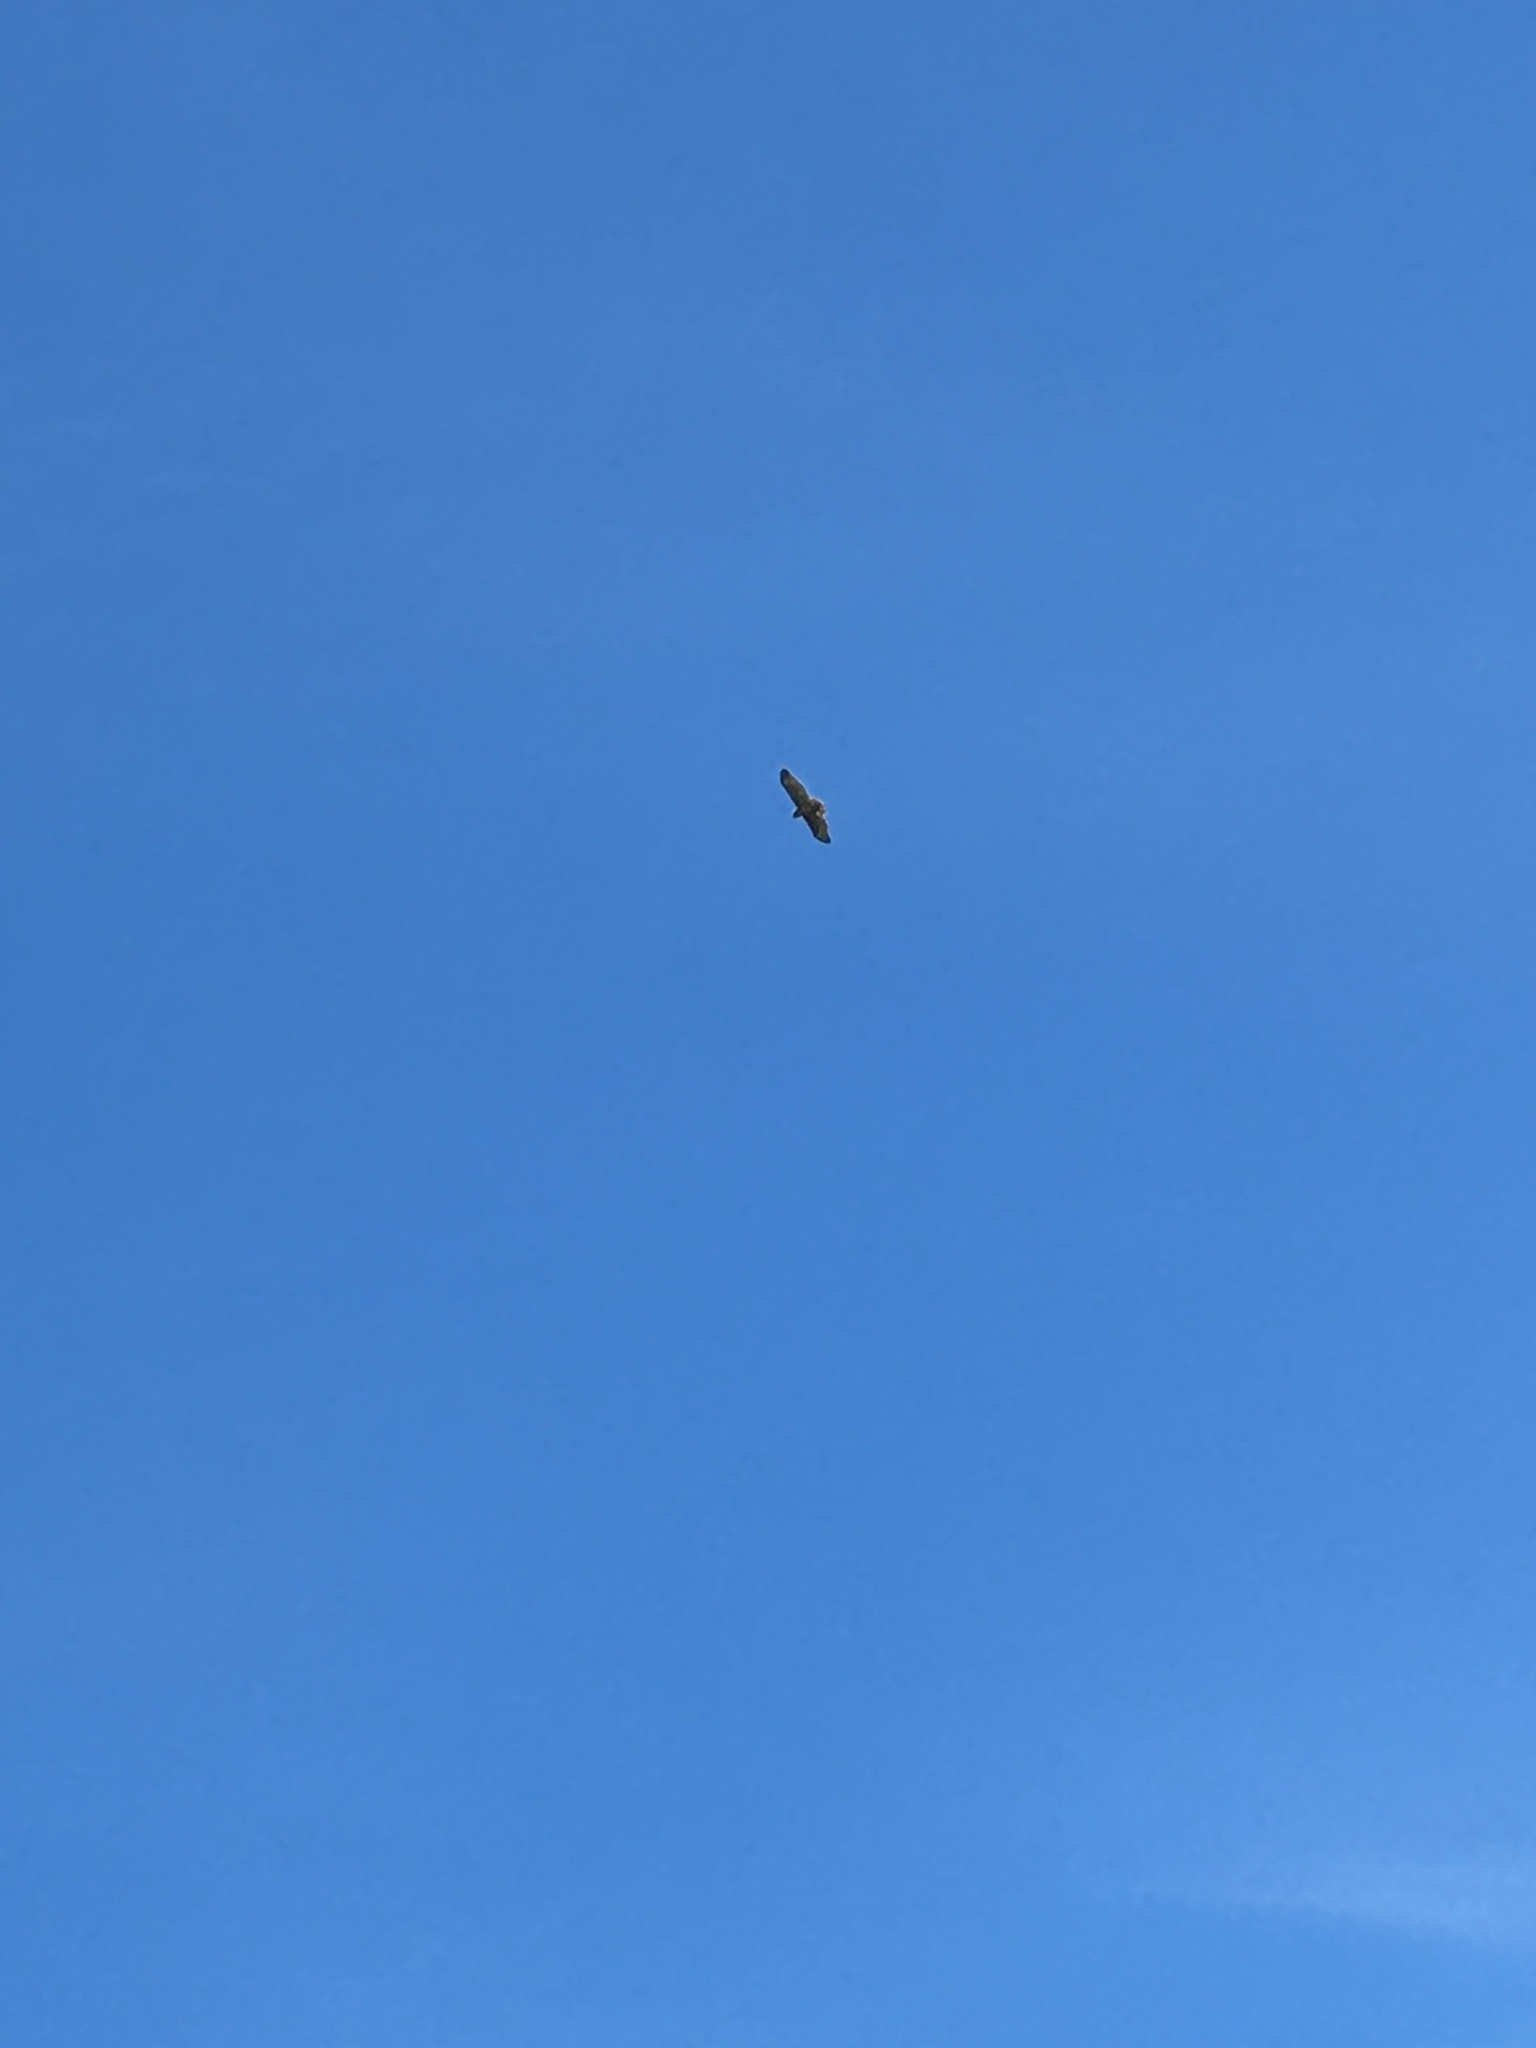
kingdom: Animalia
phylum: Chordata
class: Aves
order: Accipitriformes
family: Accipitridae
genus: Buteo
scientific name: Buteo jamaicensis
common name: Red-tailed hawk
